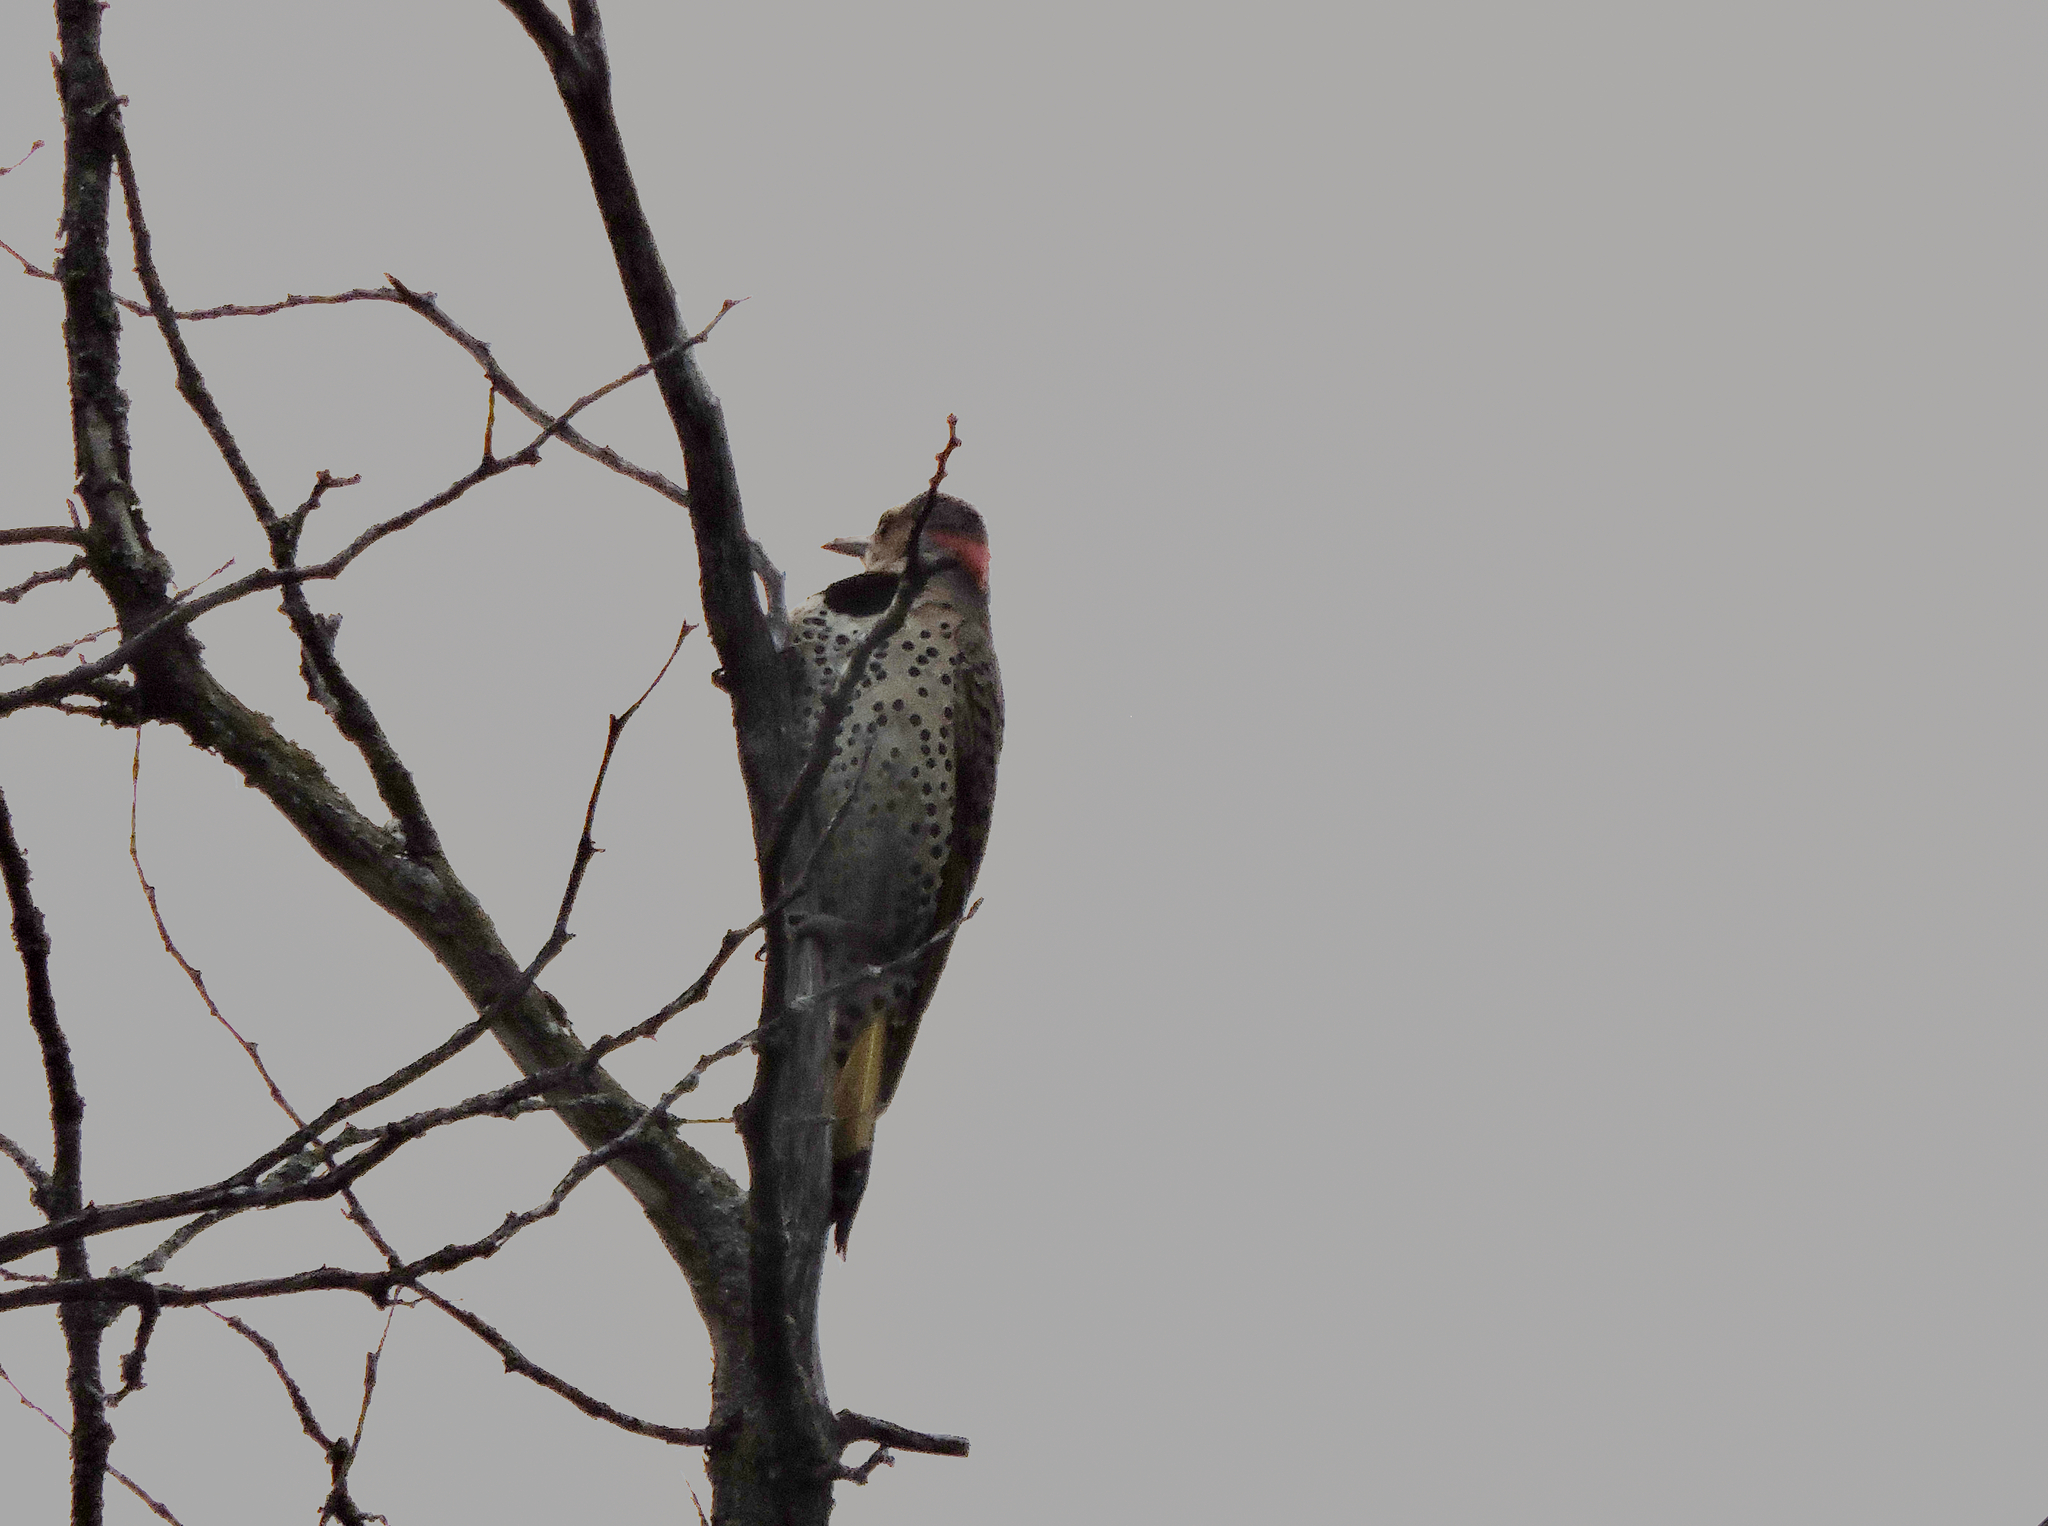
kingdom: Animalia
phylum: Chordata
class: Aves
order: Piciformes
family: Picidae
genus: Colaptes
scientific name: Colaptes auratus
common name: Northern flicker
